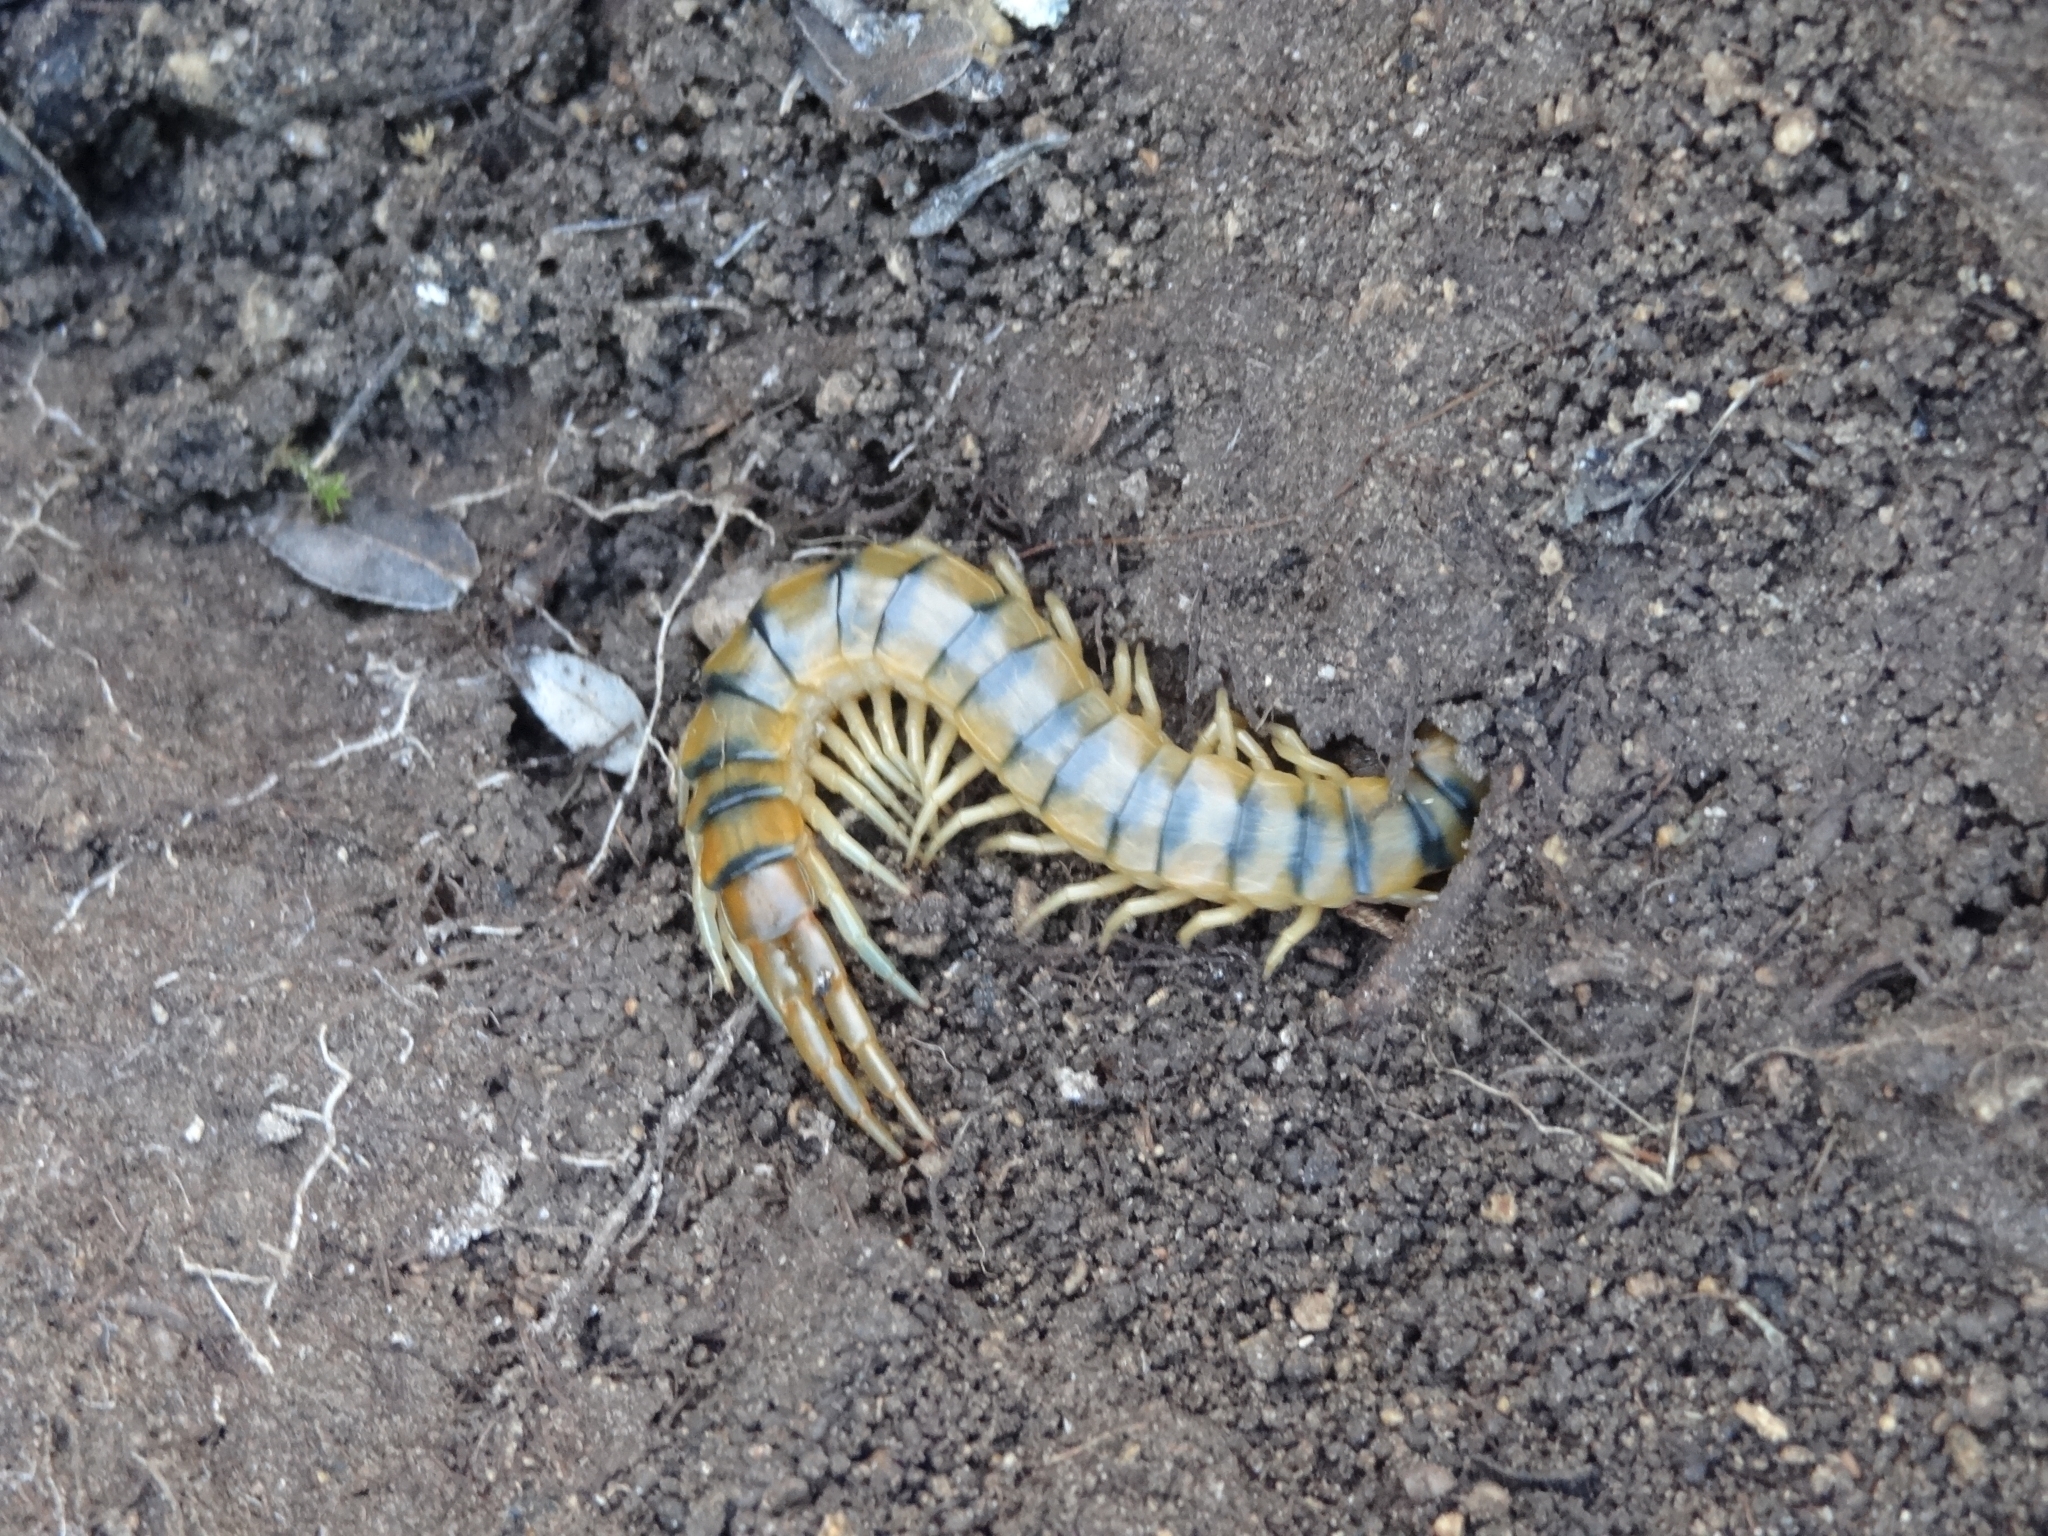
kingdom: Animalia
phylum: Arthropoda
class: Chilopoda
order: Scolopendromorpha
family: Scolopendridae
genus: Scolopendra
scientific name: Scolopendra cingulata
